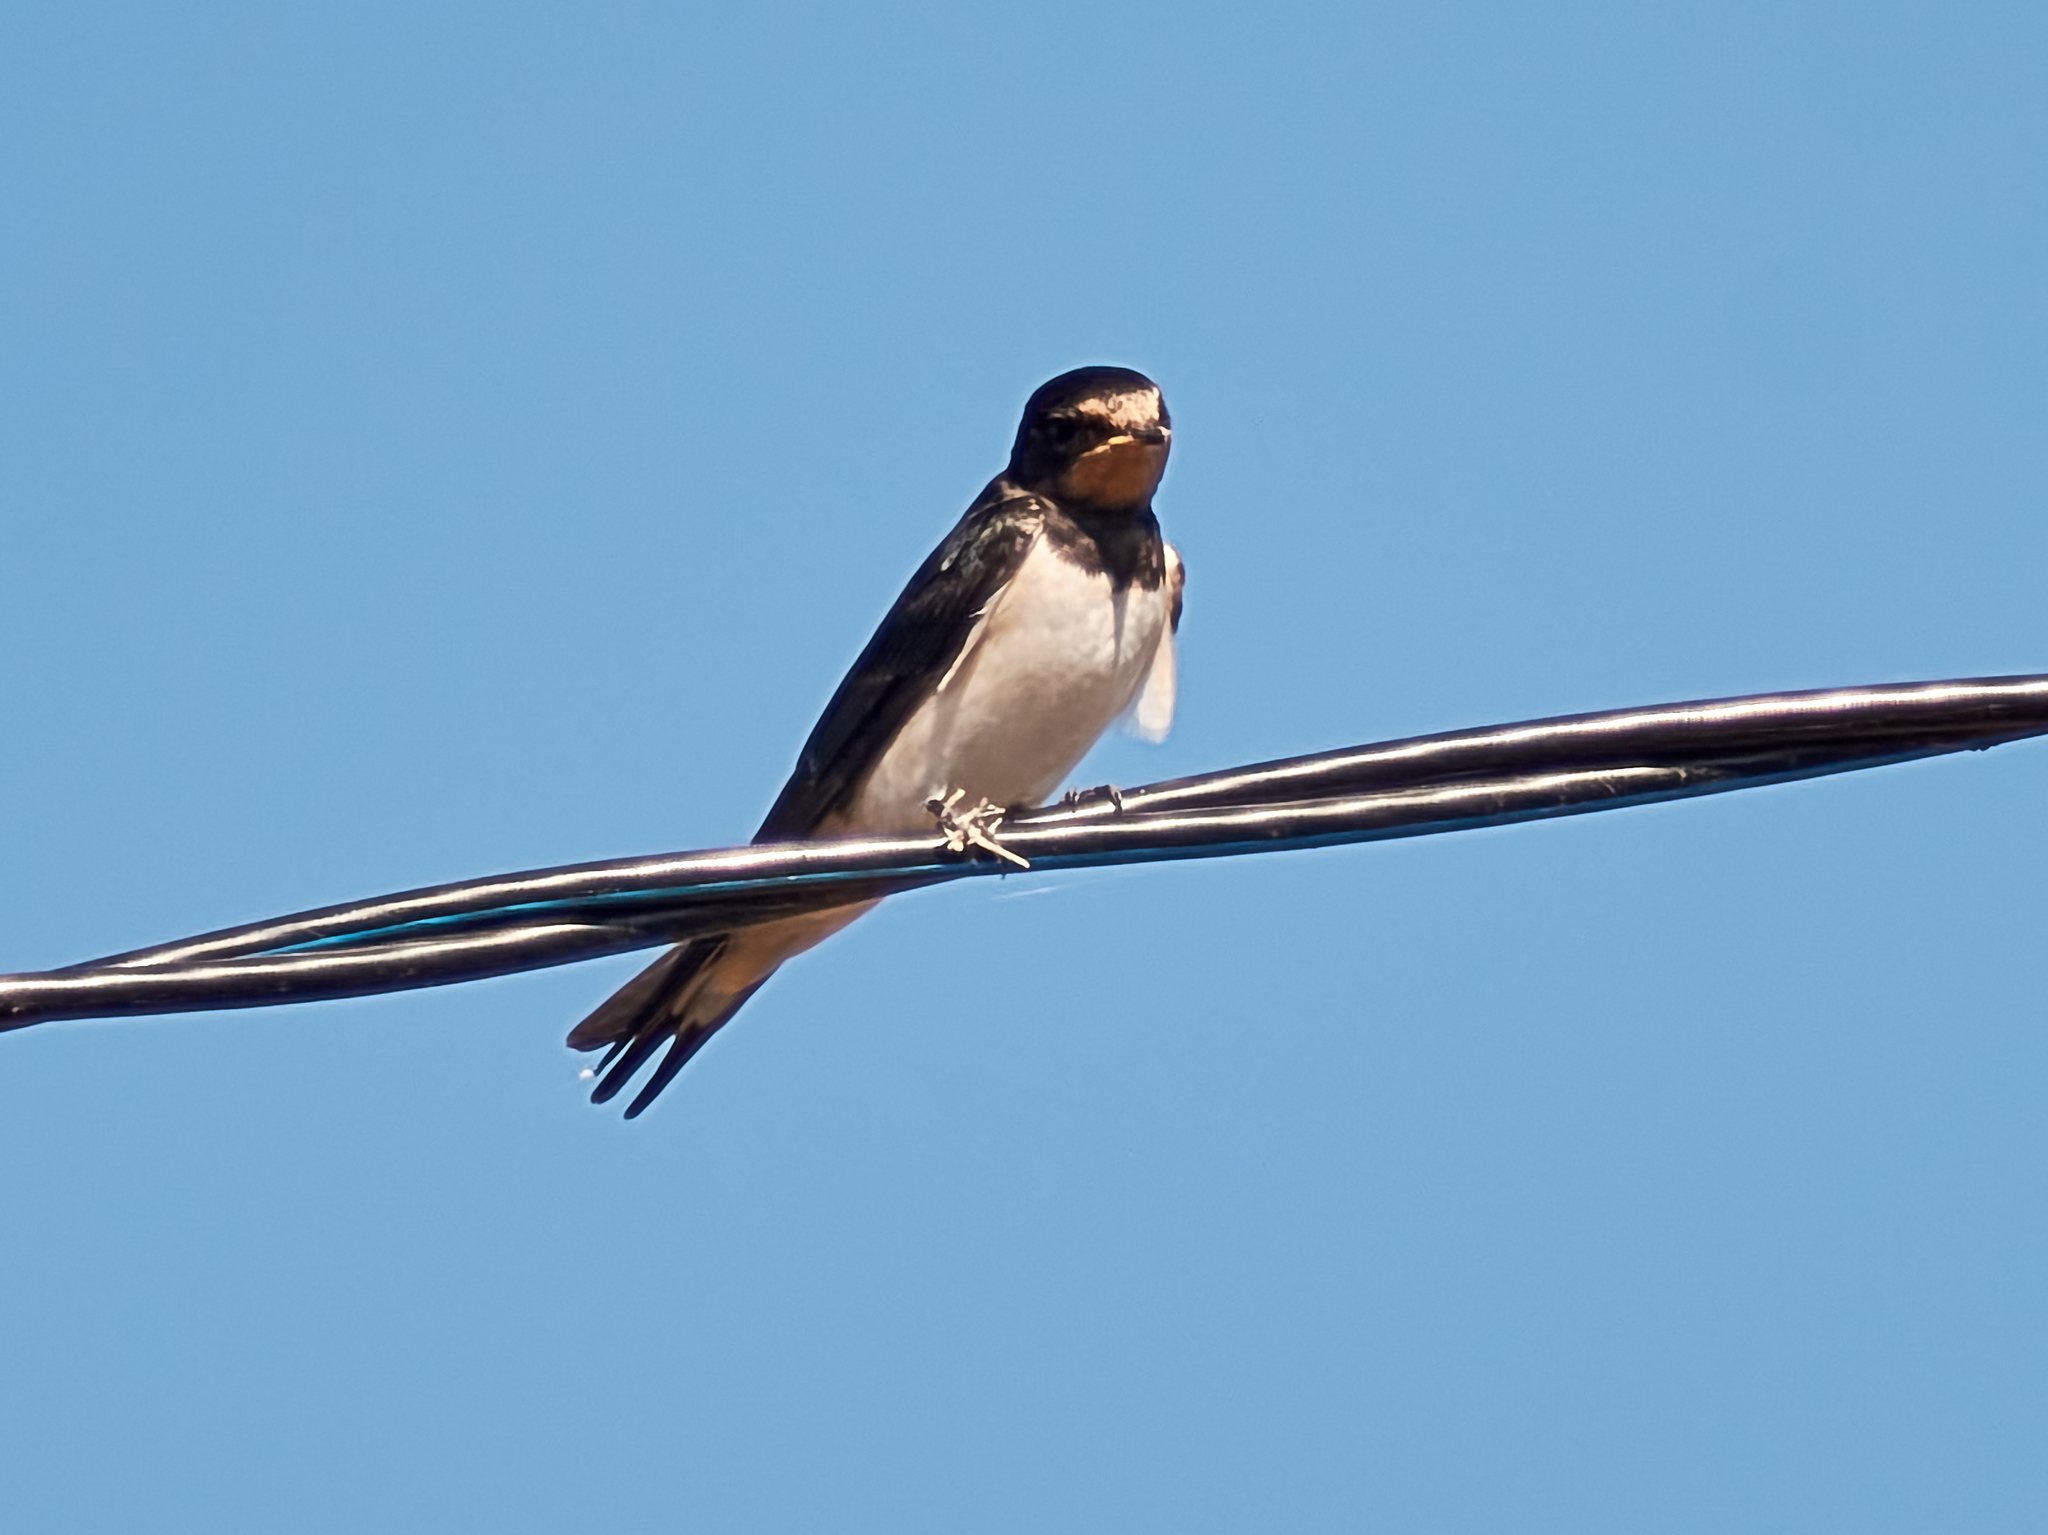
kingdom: Animalia
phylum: Chordata
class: Aves
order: Passeriformes
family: Hirundinidae
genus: Hirundo
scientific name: Hirundo rustica
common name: Barn swallow
